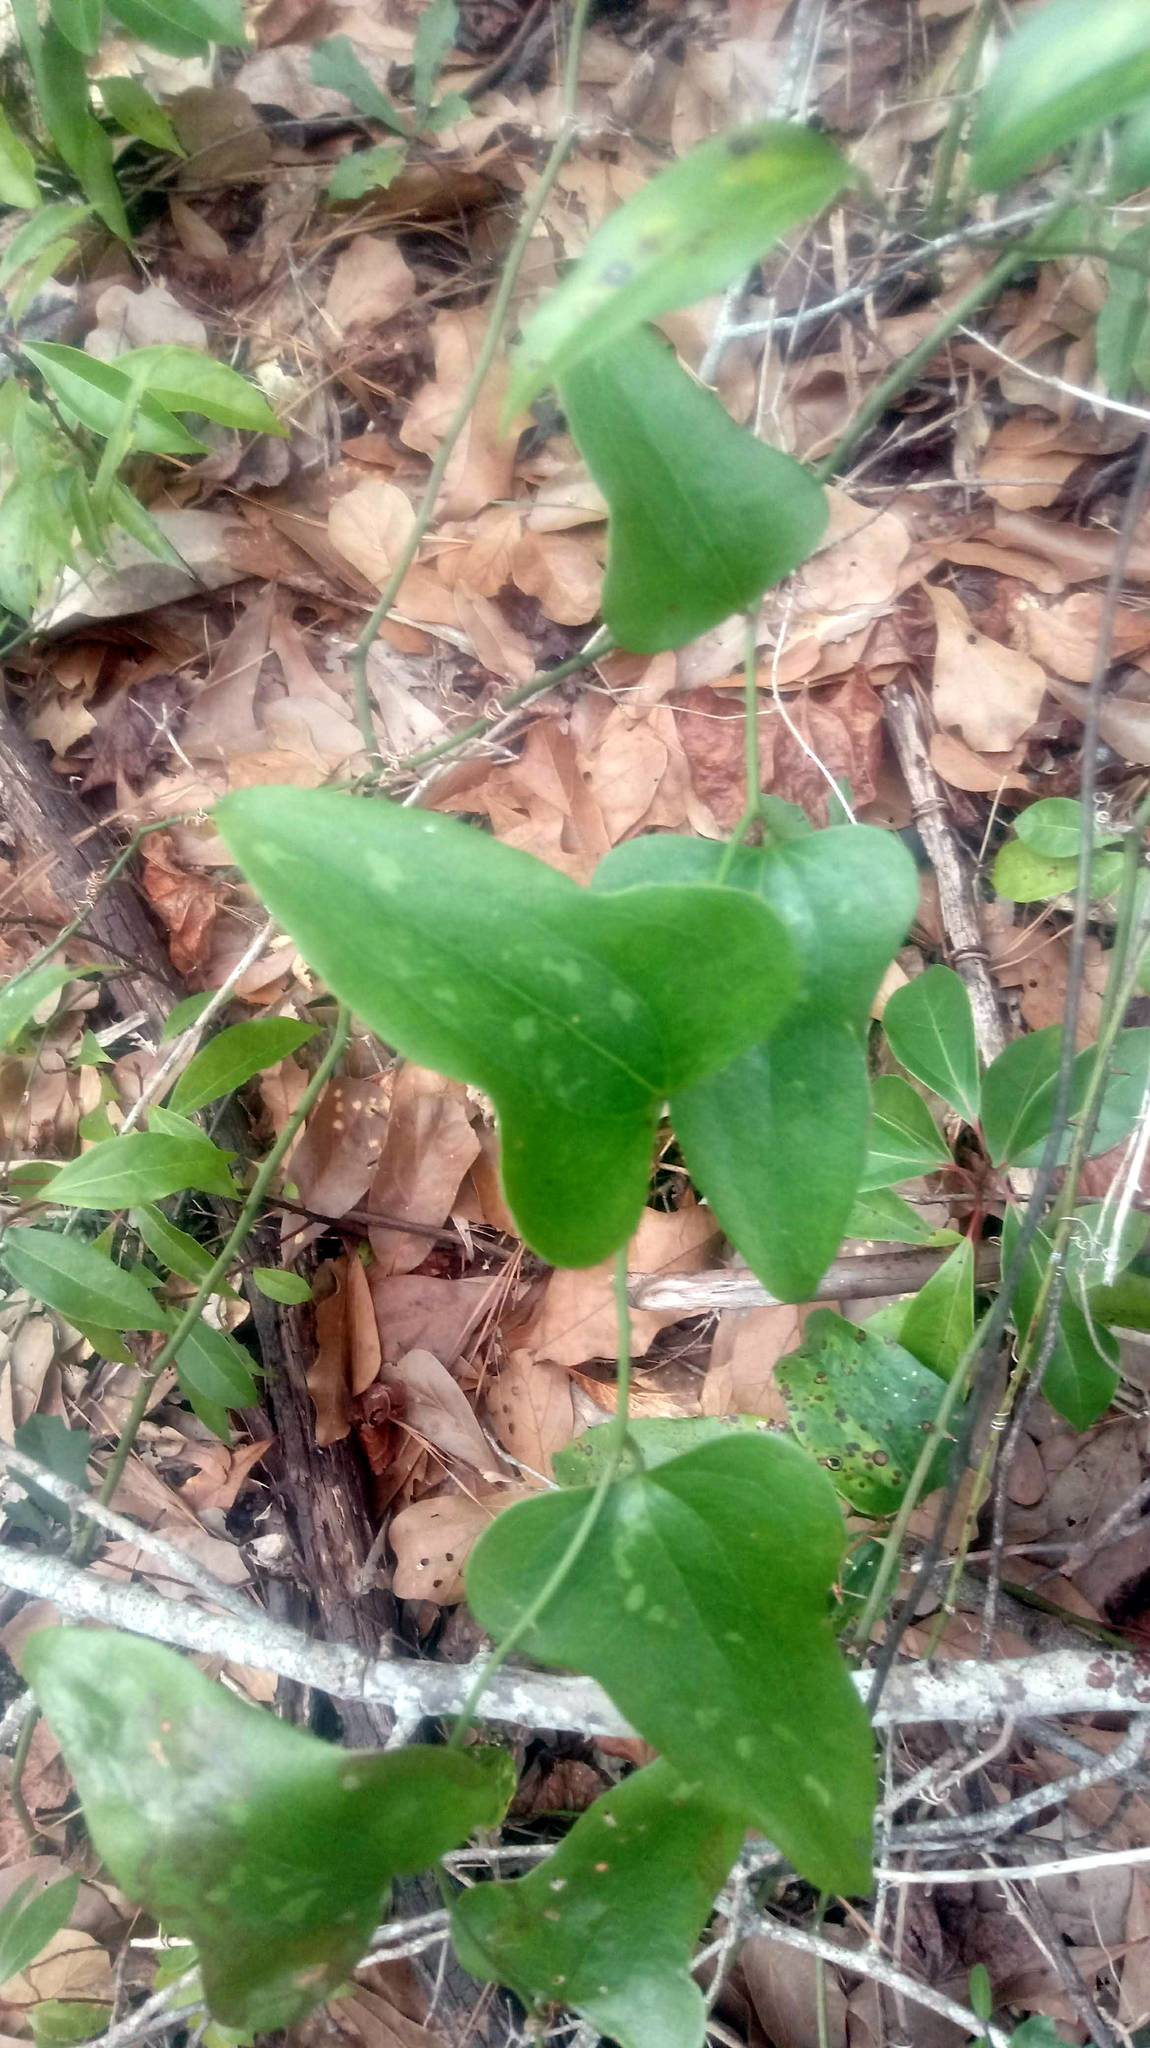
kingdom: Plantae
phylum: Tracheophyta
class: Liliopsida
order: Liliales
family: Smilacaceae
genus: Smilax
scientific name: Smilax bona-nox
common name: Catbrier
